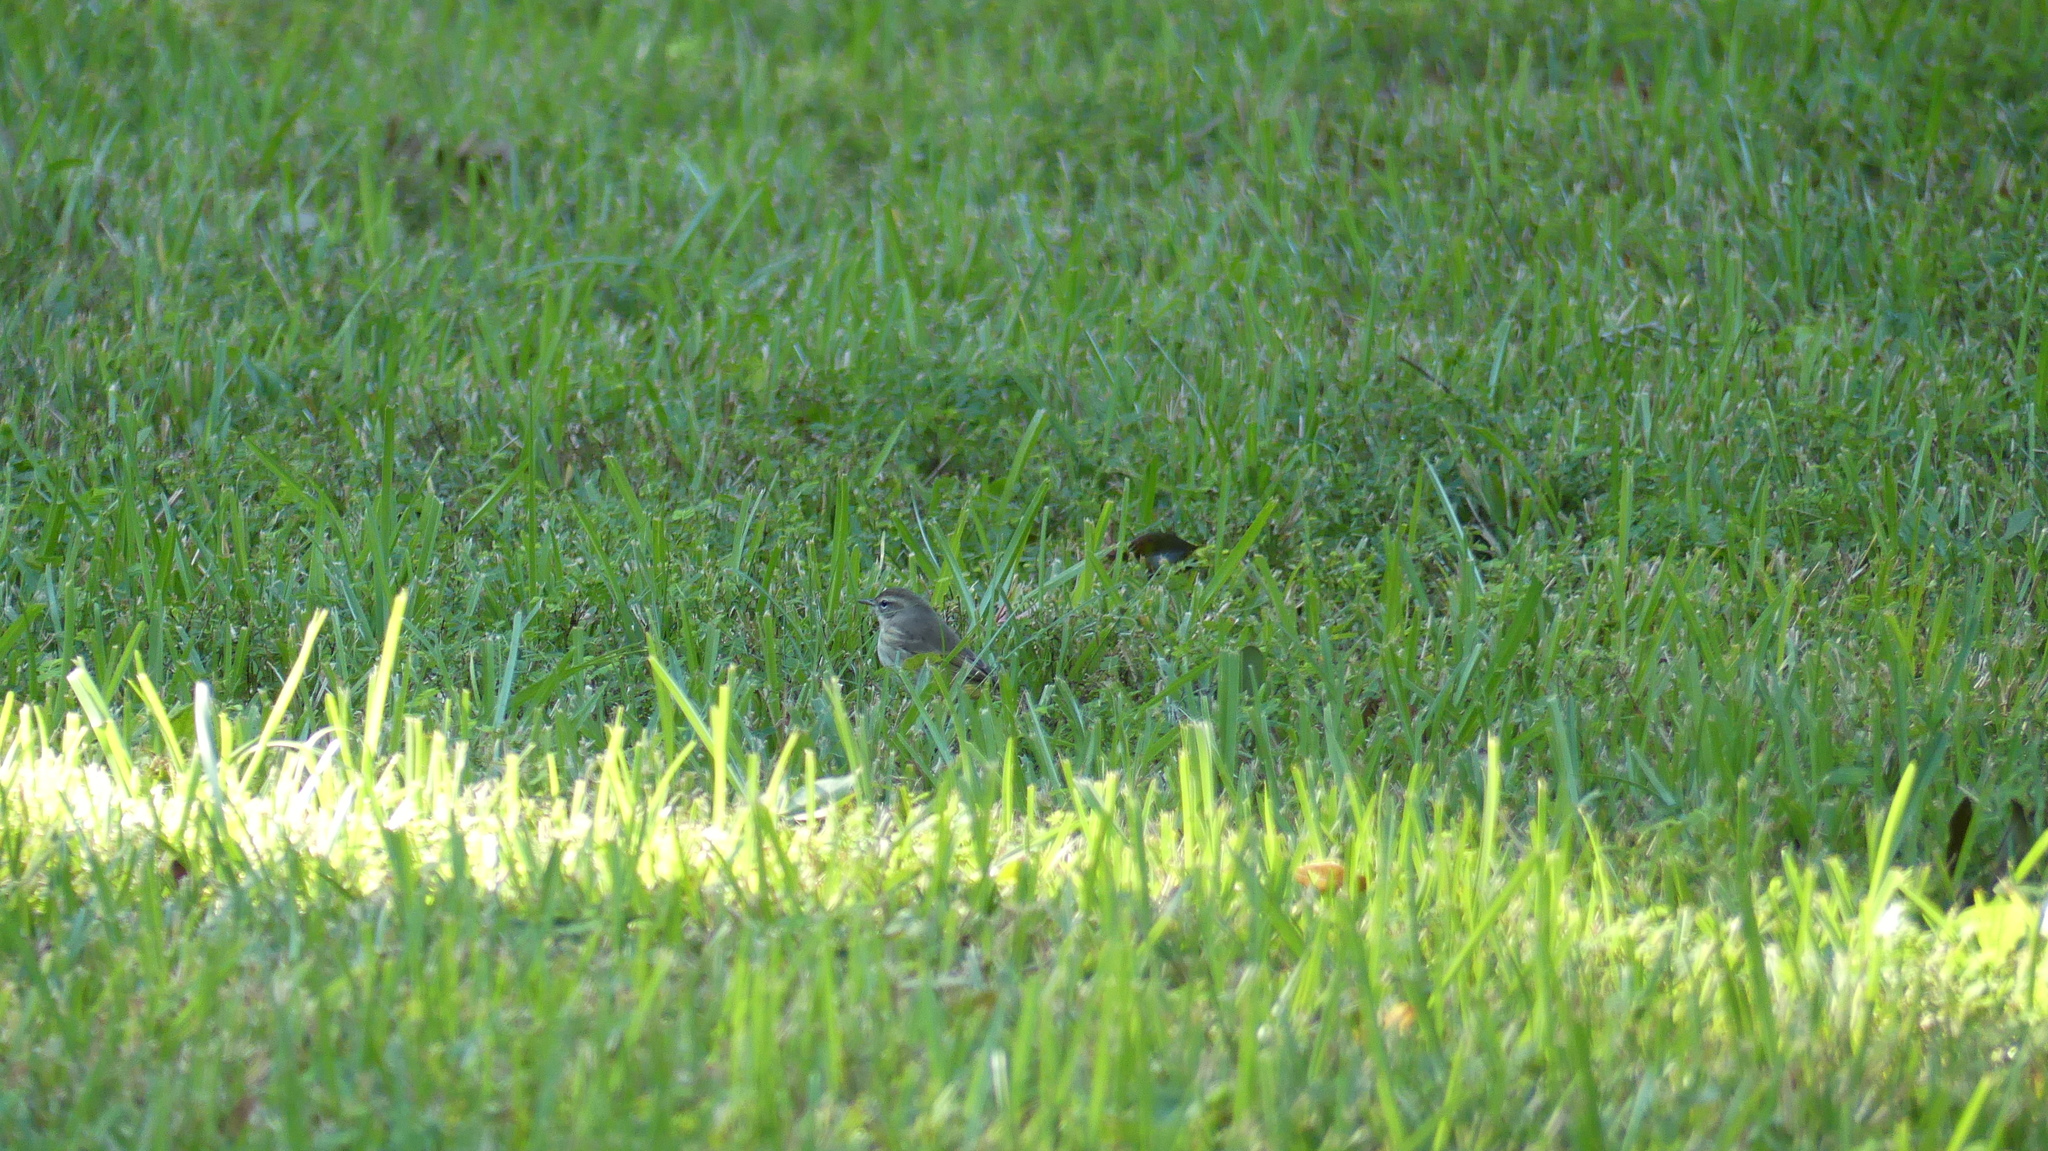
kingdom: Animalia
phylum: Chordata
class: Aves
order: Passeriformes
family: Parulidae
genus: Setophaga
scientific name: Setophaga palmarum
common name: Palm warbler
